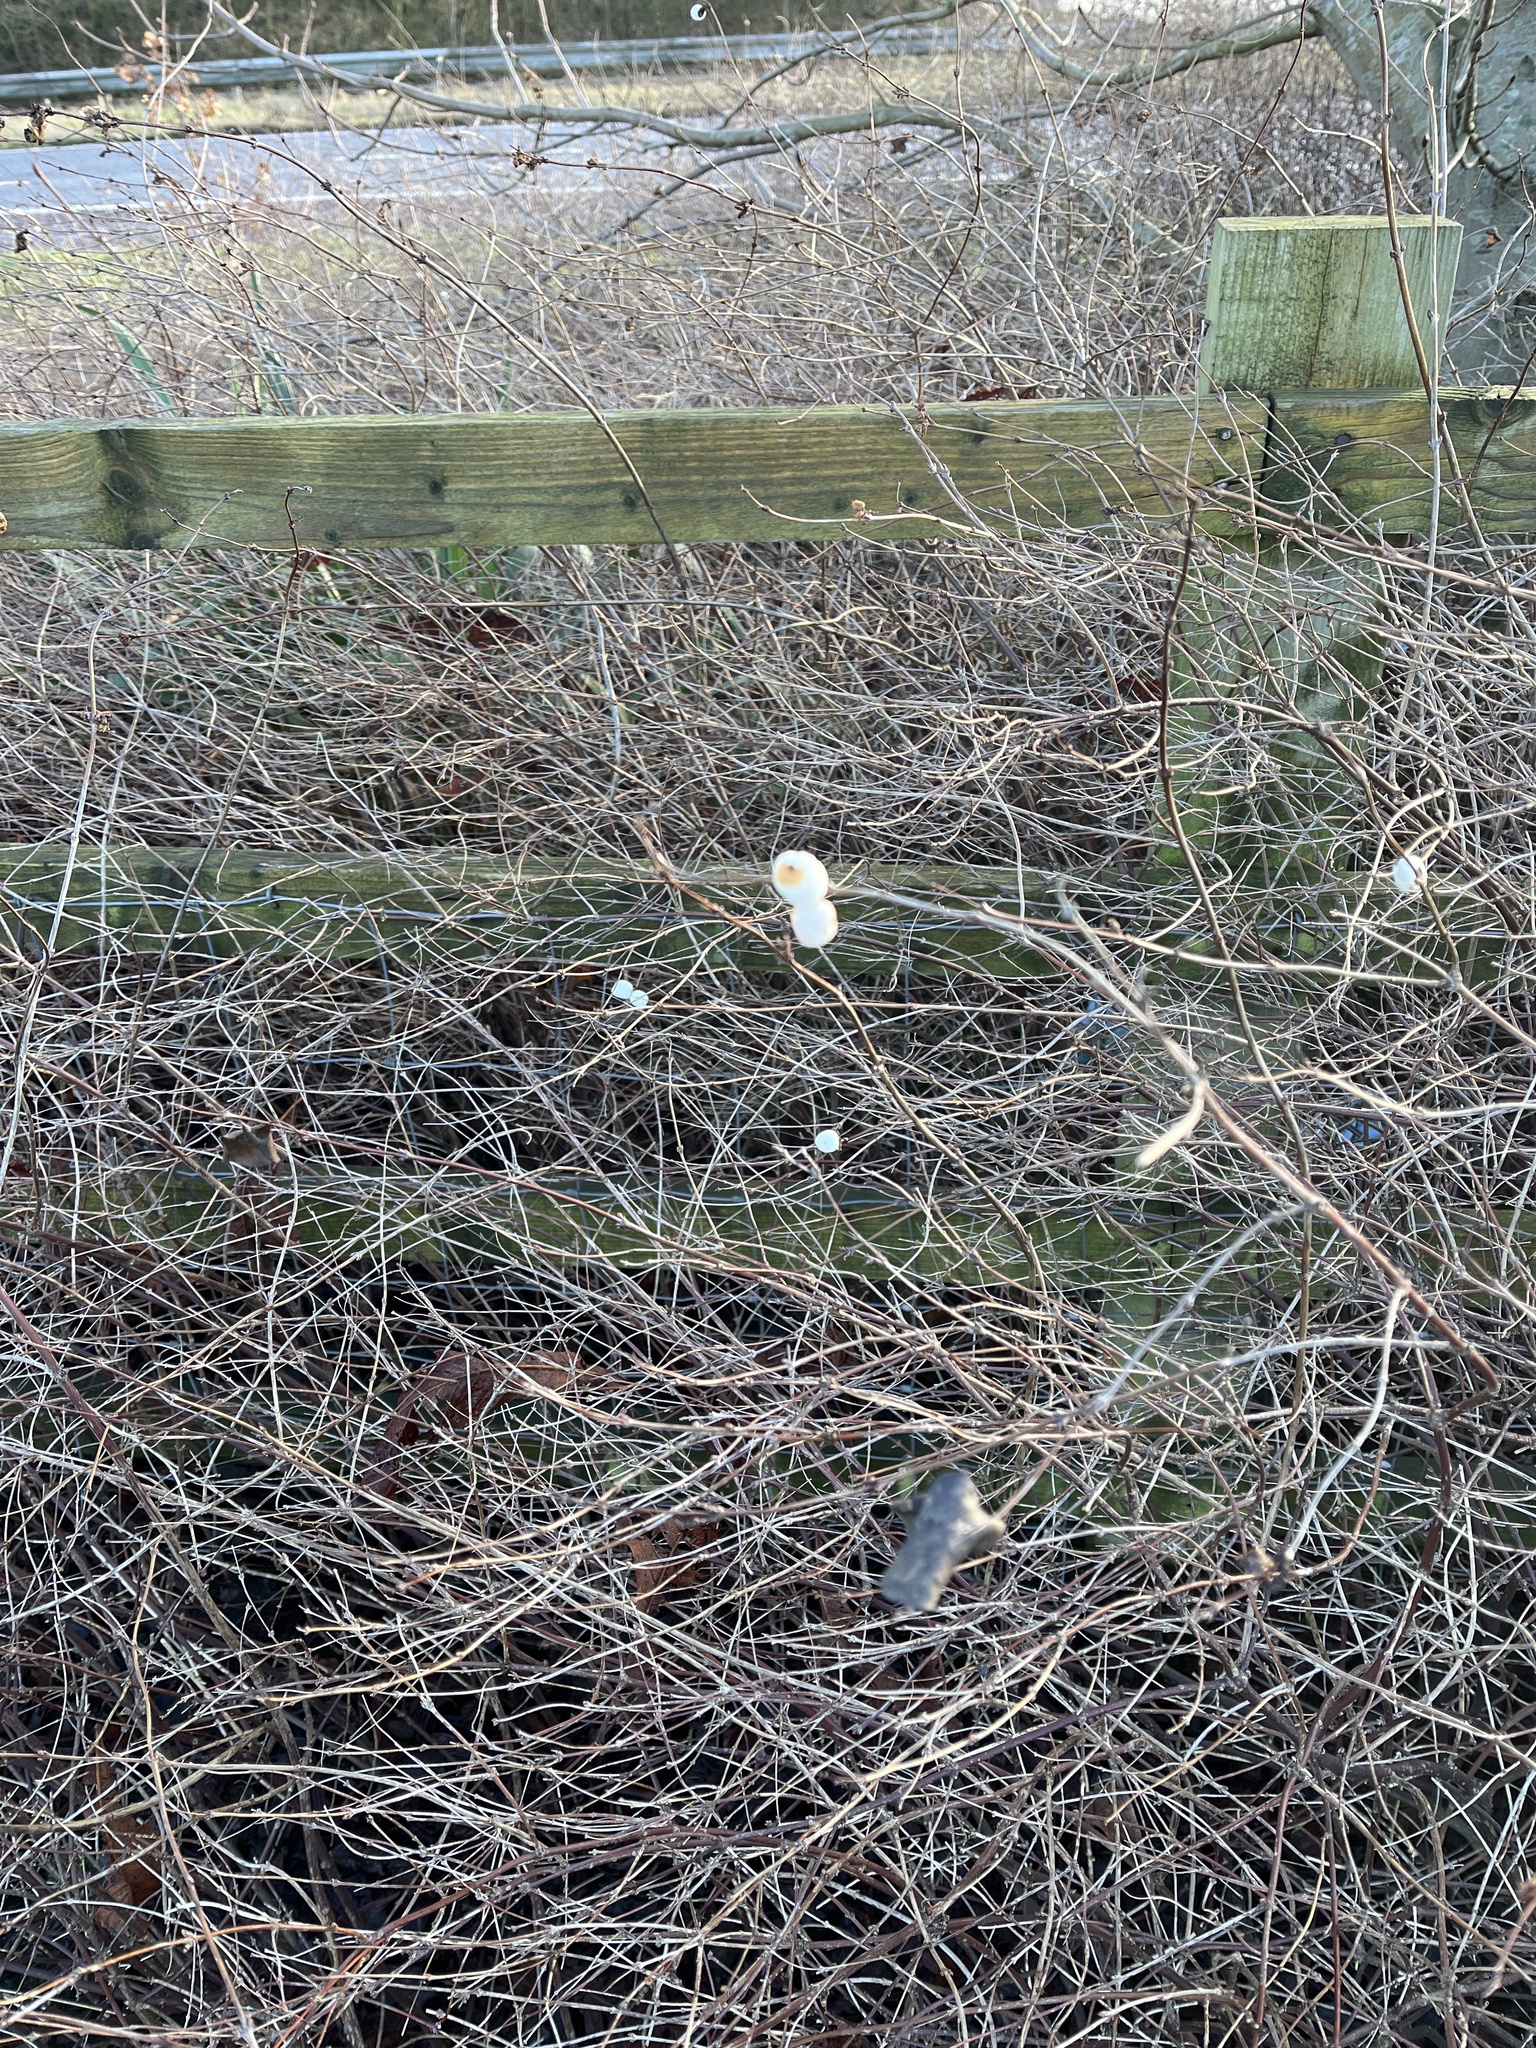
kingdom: Plantae
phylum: Tracheophyta
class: Magnoliopsida
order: Dipsacales
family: Caprifoliaceae
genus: Symphoricarpos
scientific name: Symphoricarpos albus
